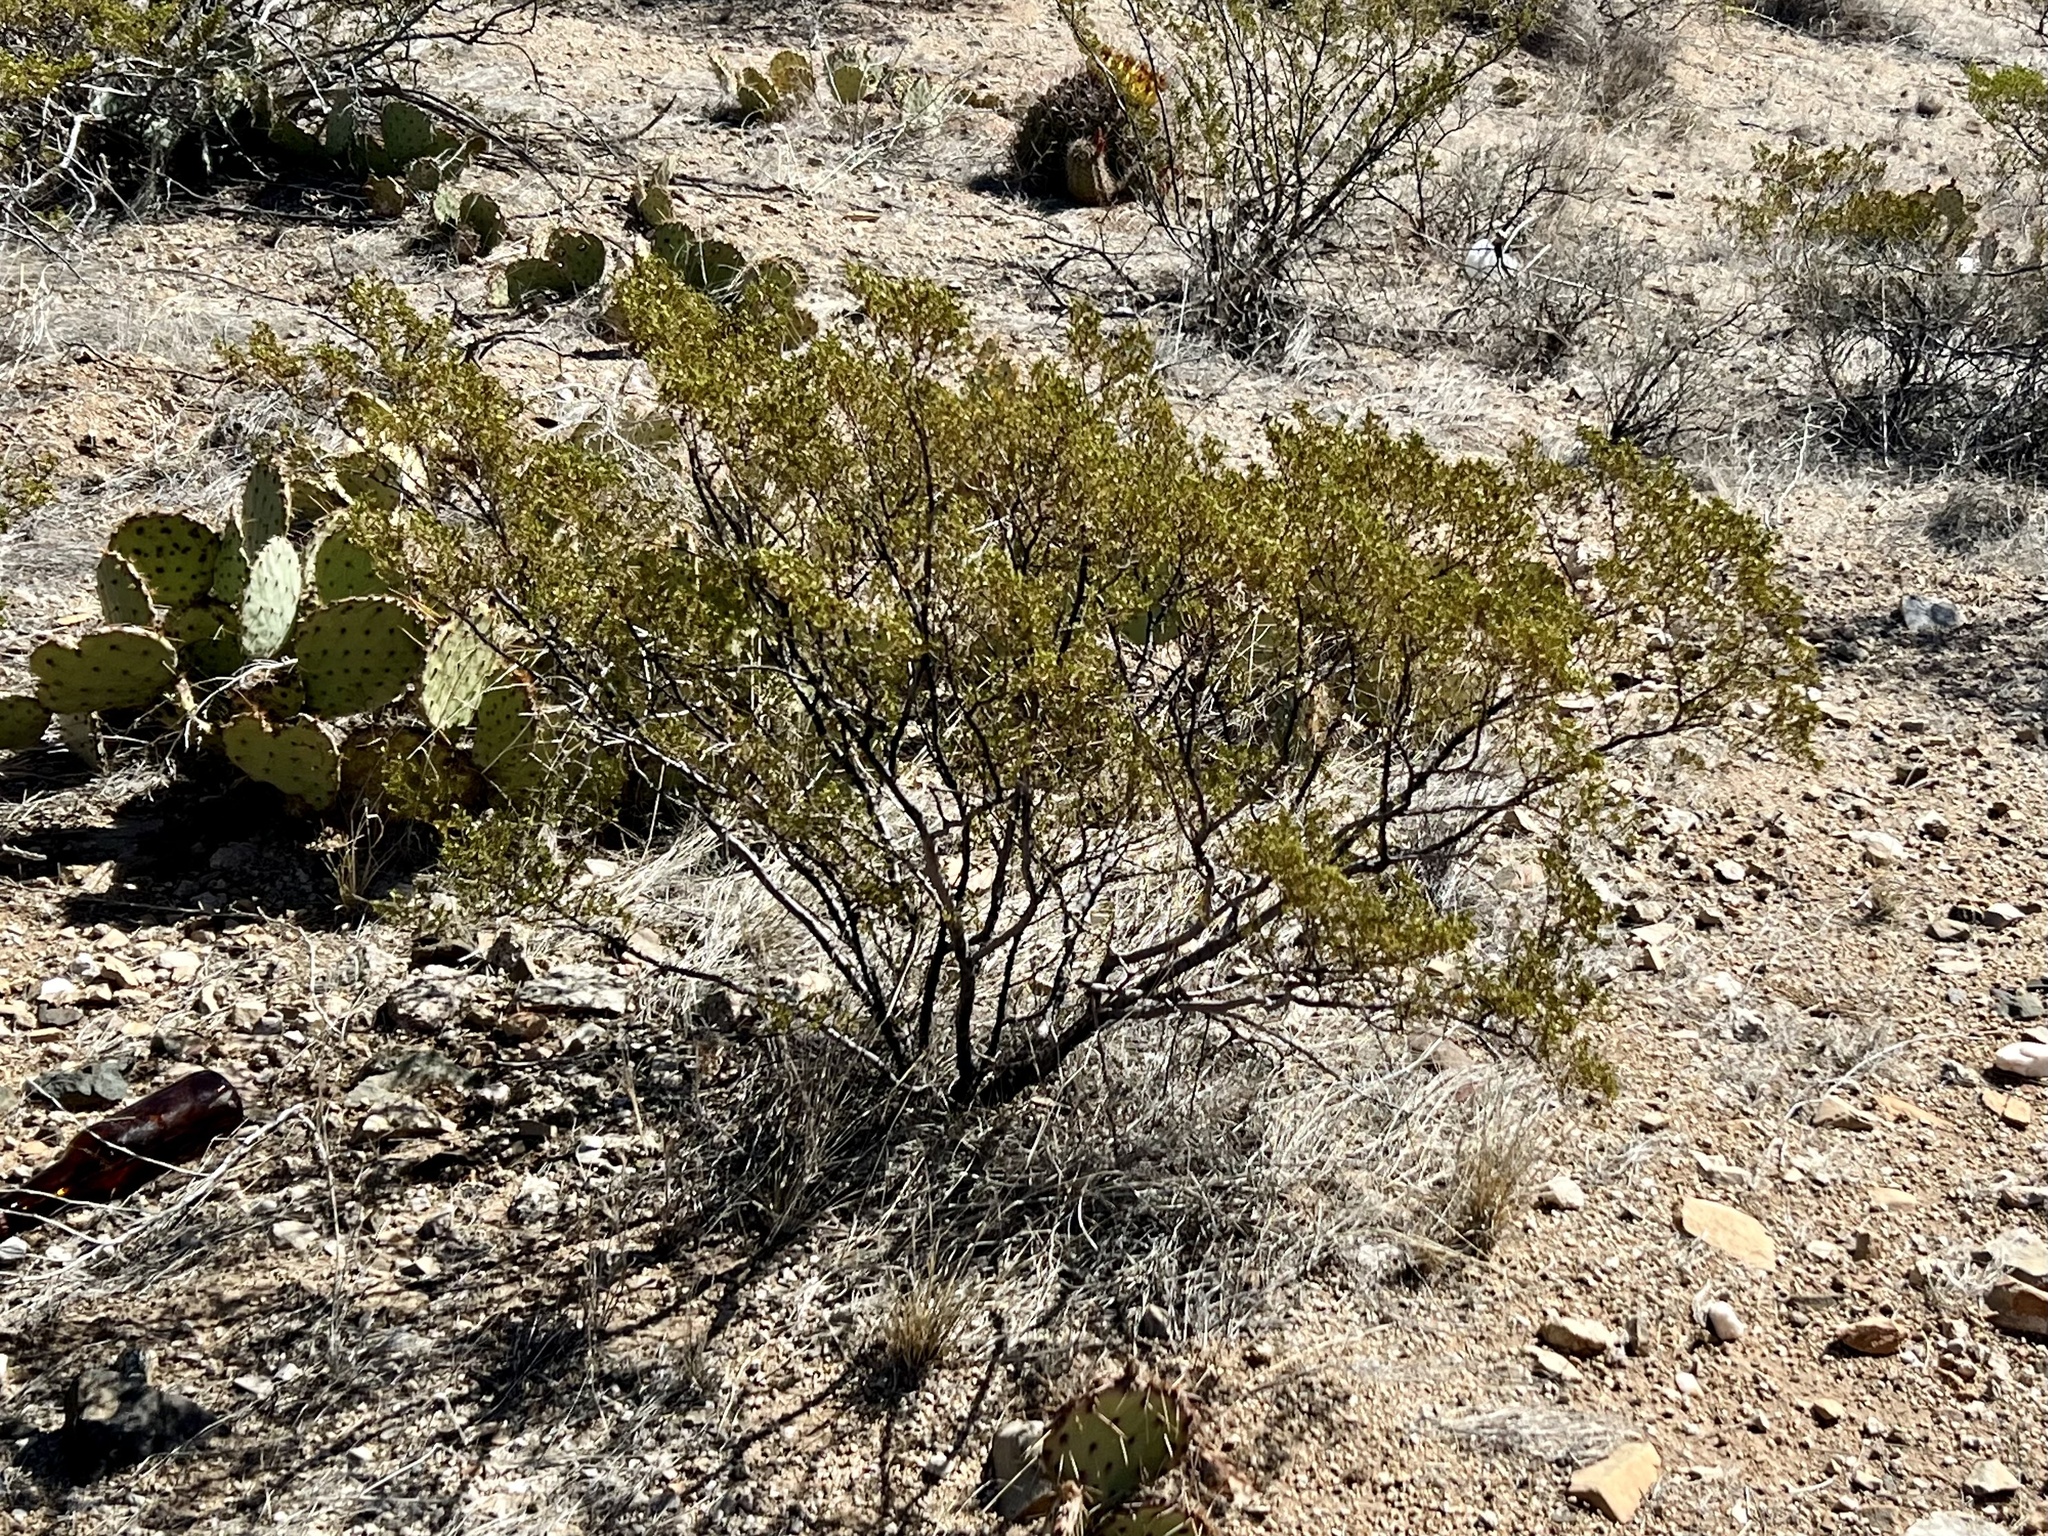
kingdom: Plantae
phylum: Tracheophyta
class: Magnoliopsida
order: Zygophyllales
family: Zygophyllaceae
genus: Larrea
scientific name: Larrea tridentata
